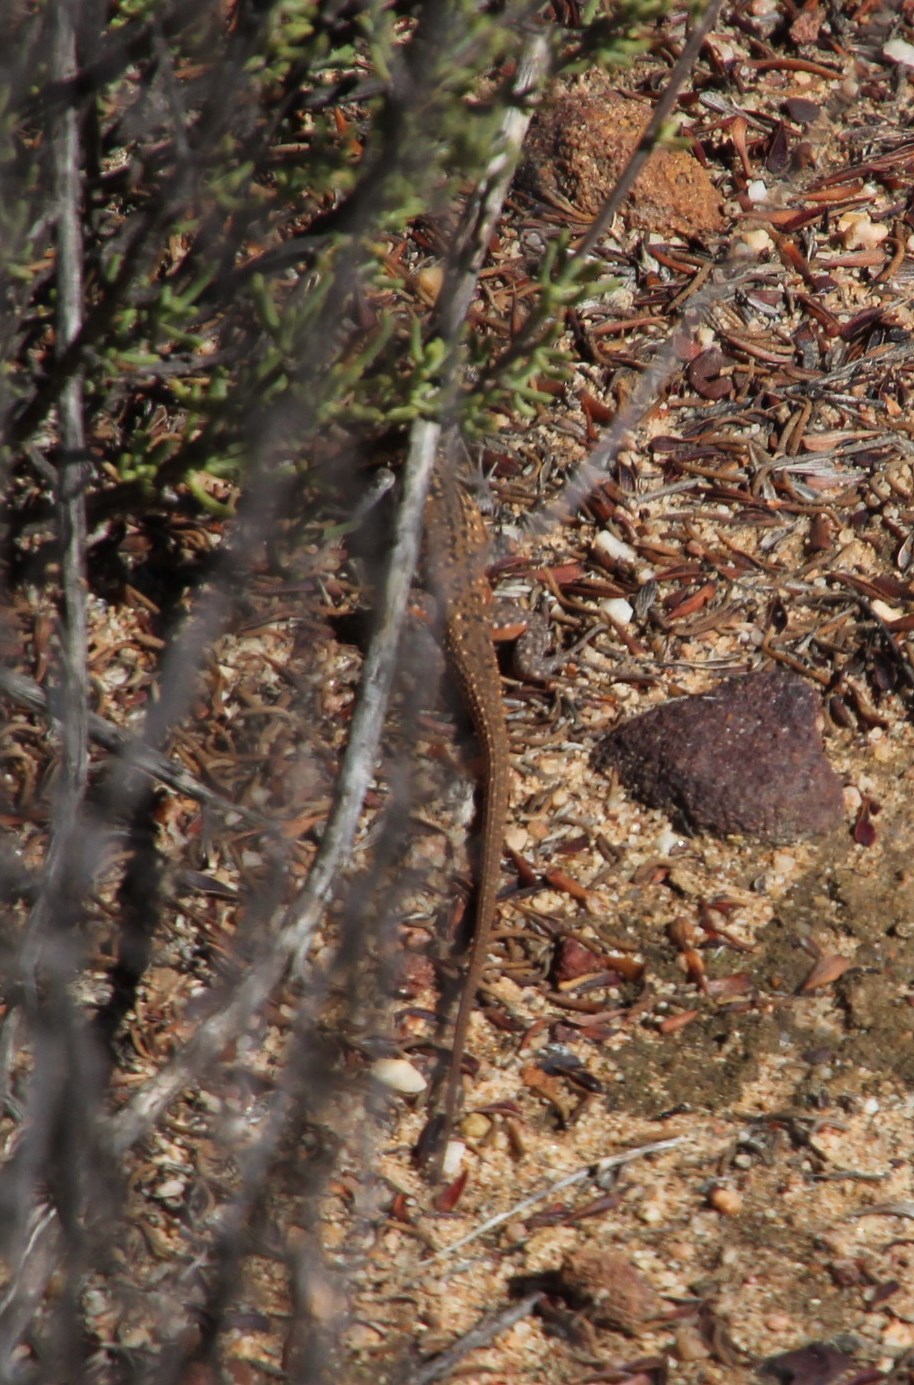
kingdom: Animalia
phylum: Chordata
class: Squamata
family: Lacertidae
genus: Pedioplanis
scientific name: Pedioplanis lineoocellata
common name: Spotted sand lizard
